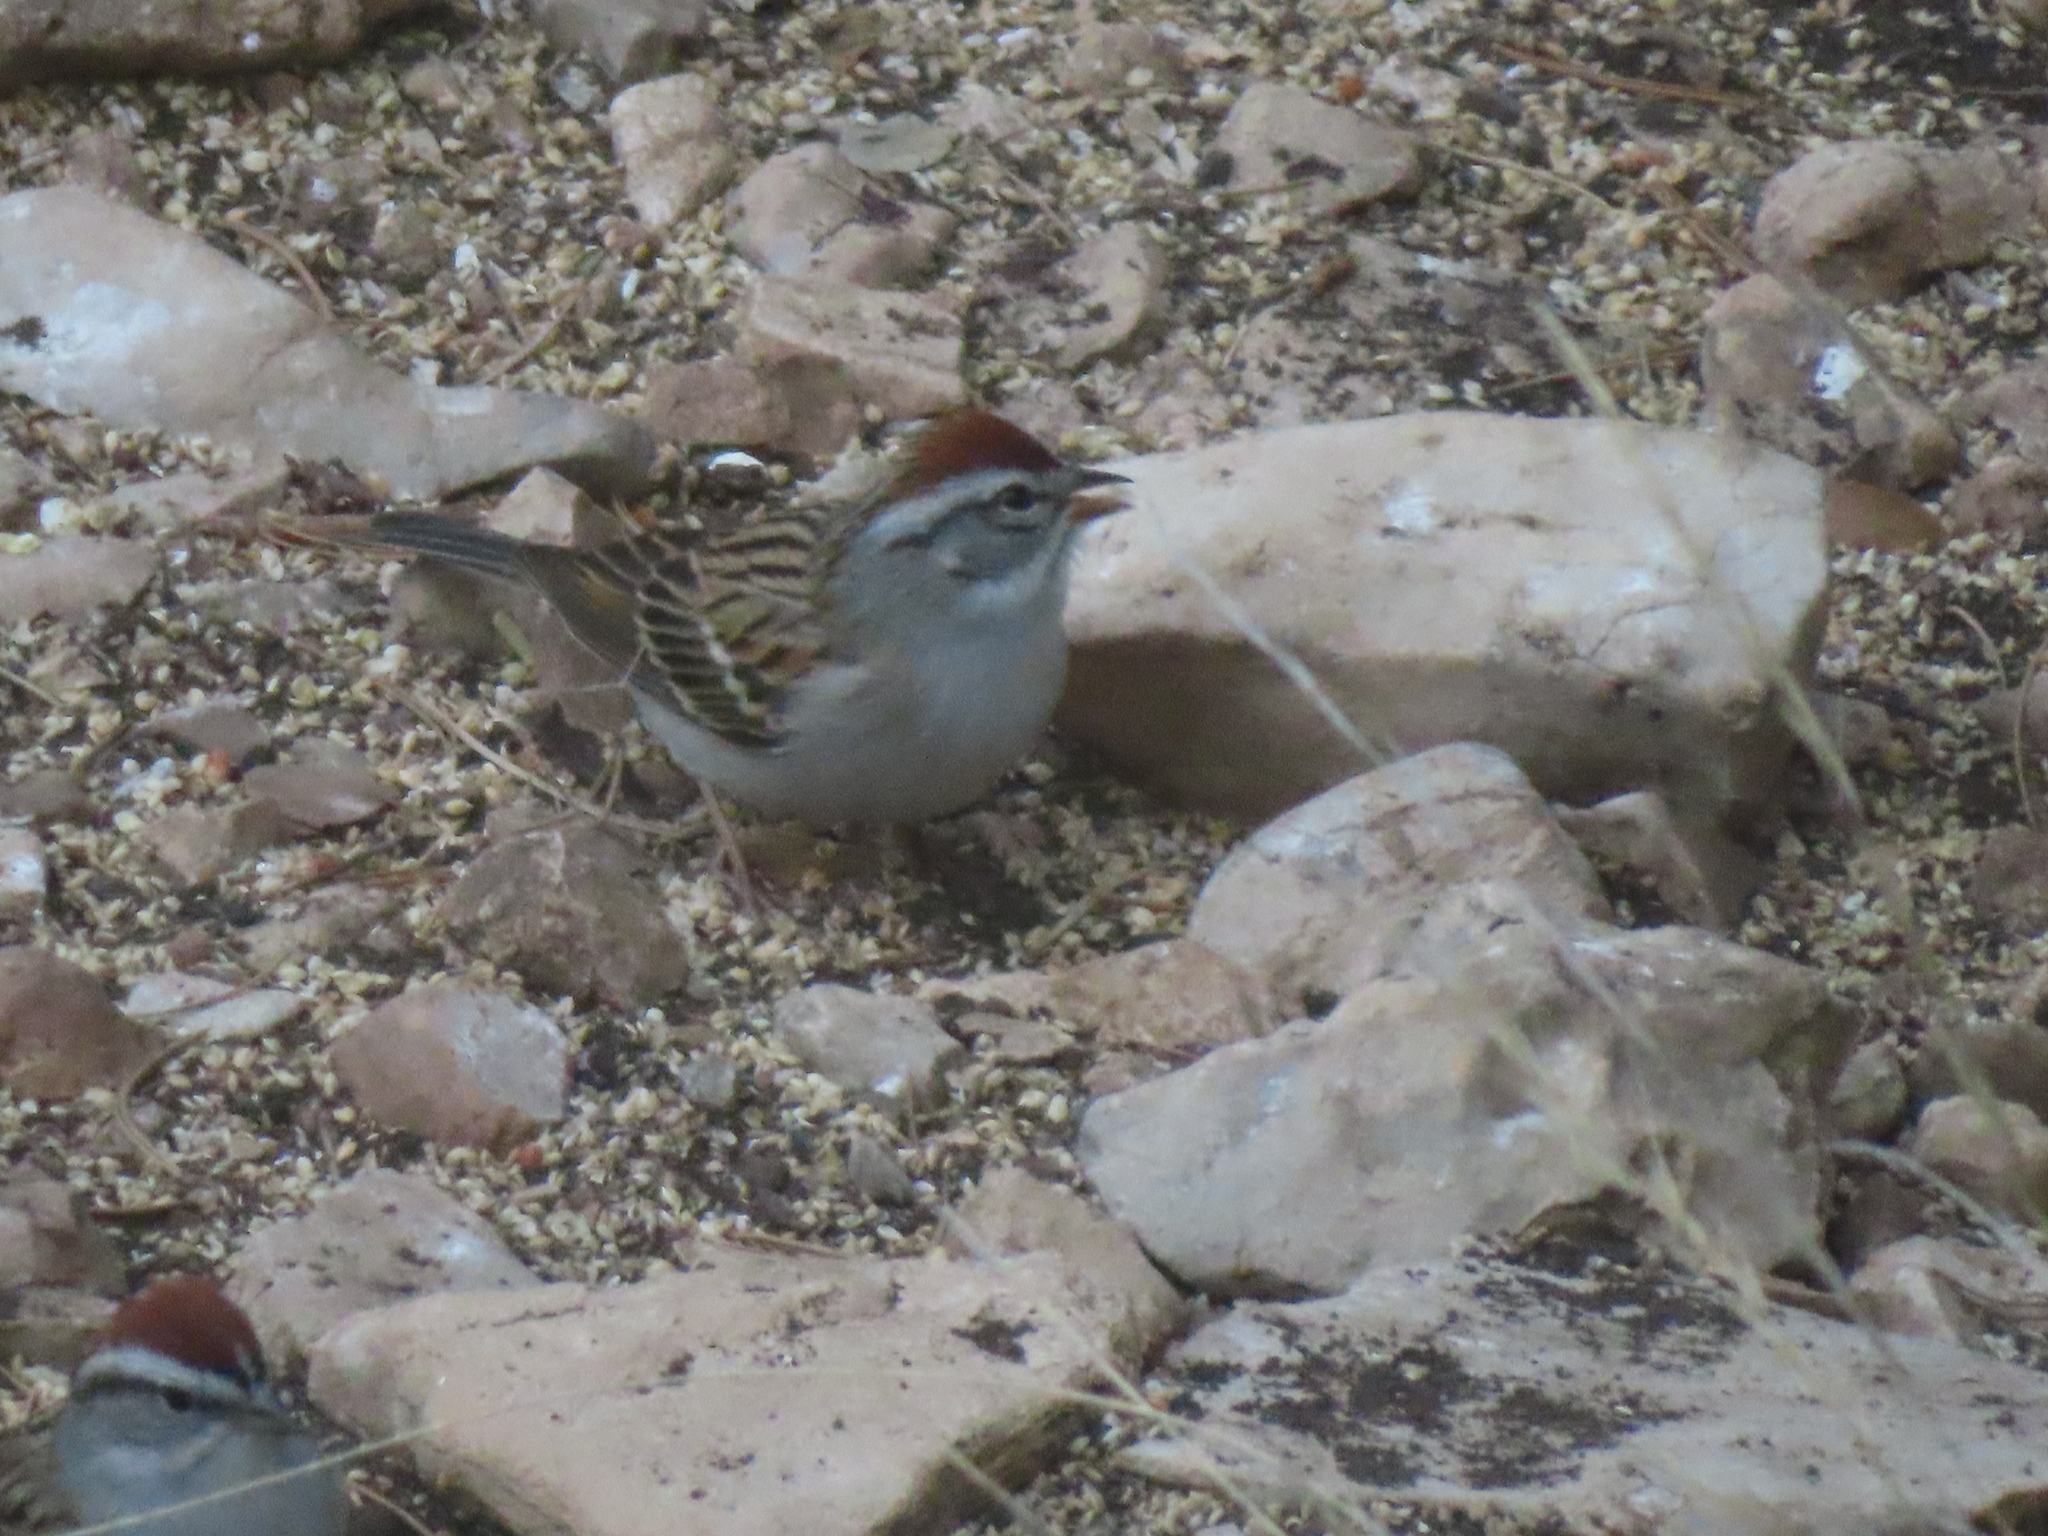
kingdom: Animalia
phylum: Chordata
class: Aves
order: Passeriformes
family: Passerellidae
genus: Spizella
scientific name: Spizella passerina
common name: Chipping sparrow
